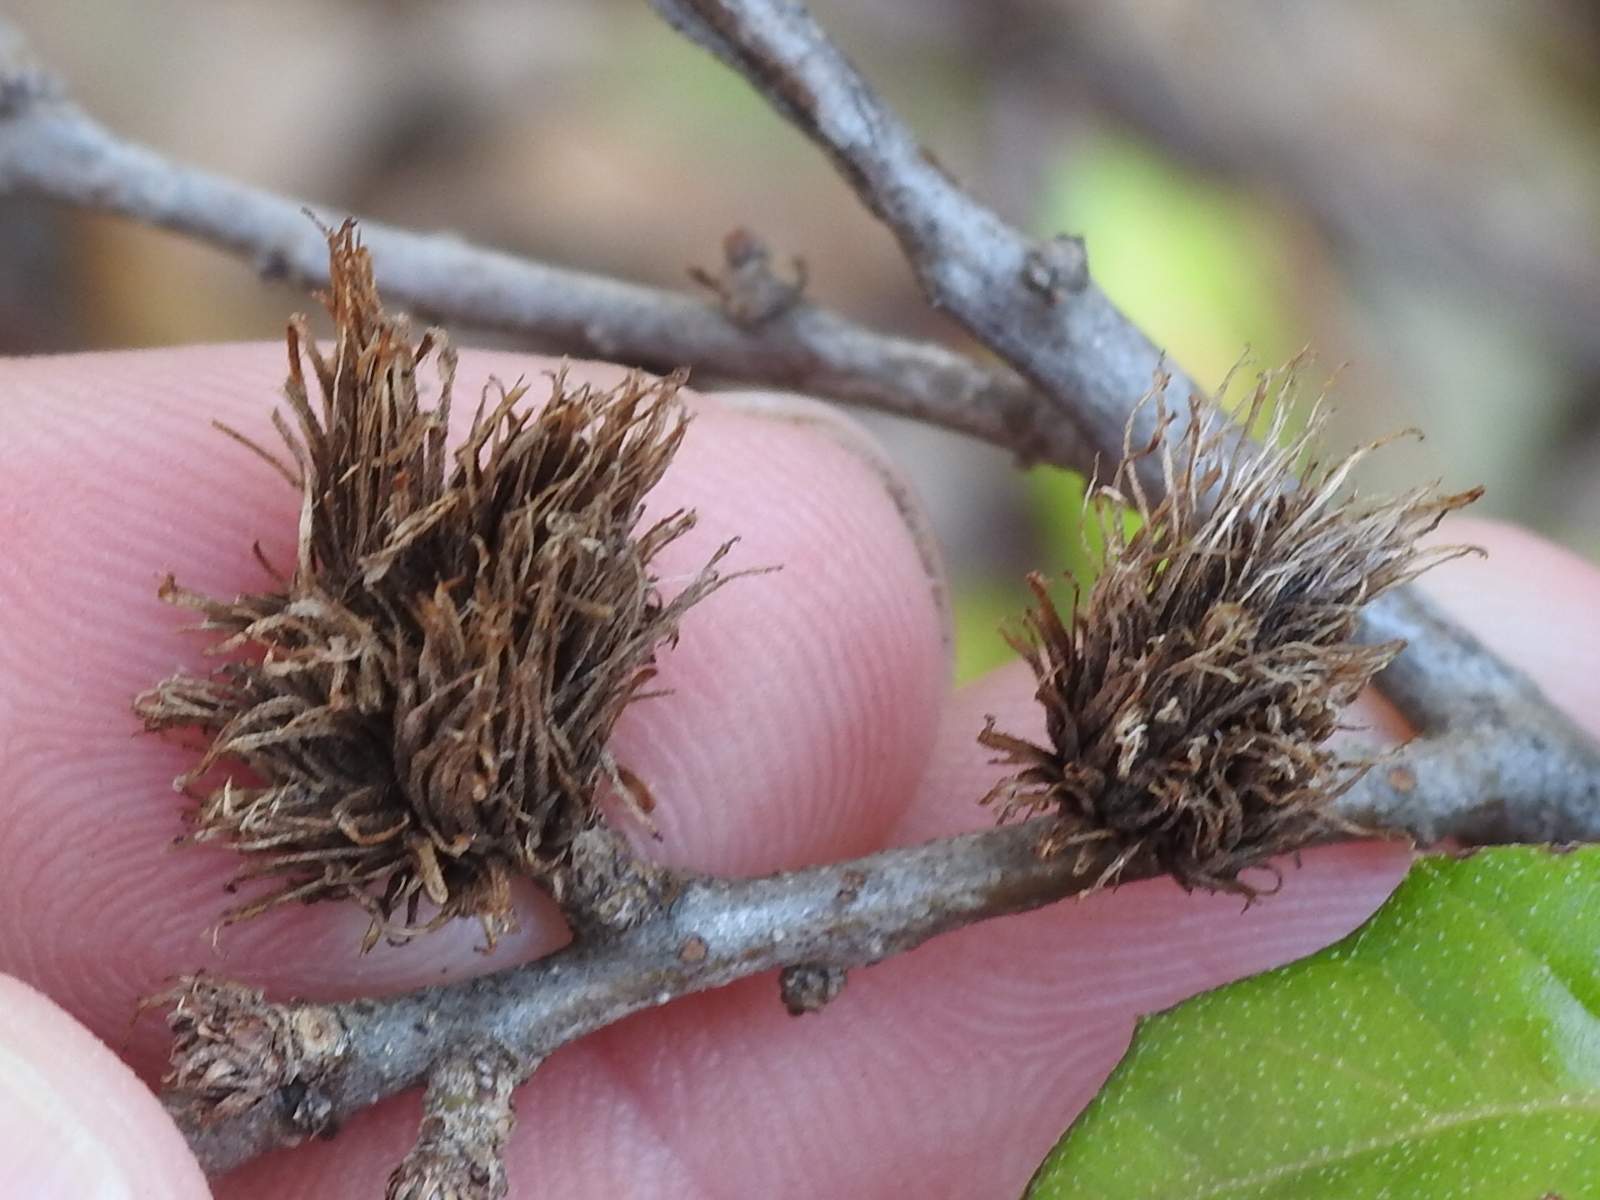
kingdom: Animalia
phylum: Arthropoda
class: Insecta
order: Hymenoptera
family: Cynipidae
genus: Andricus
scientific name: Andricus quercusfoliatus
